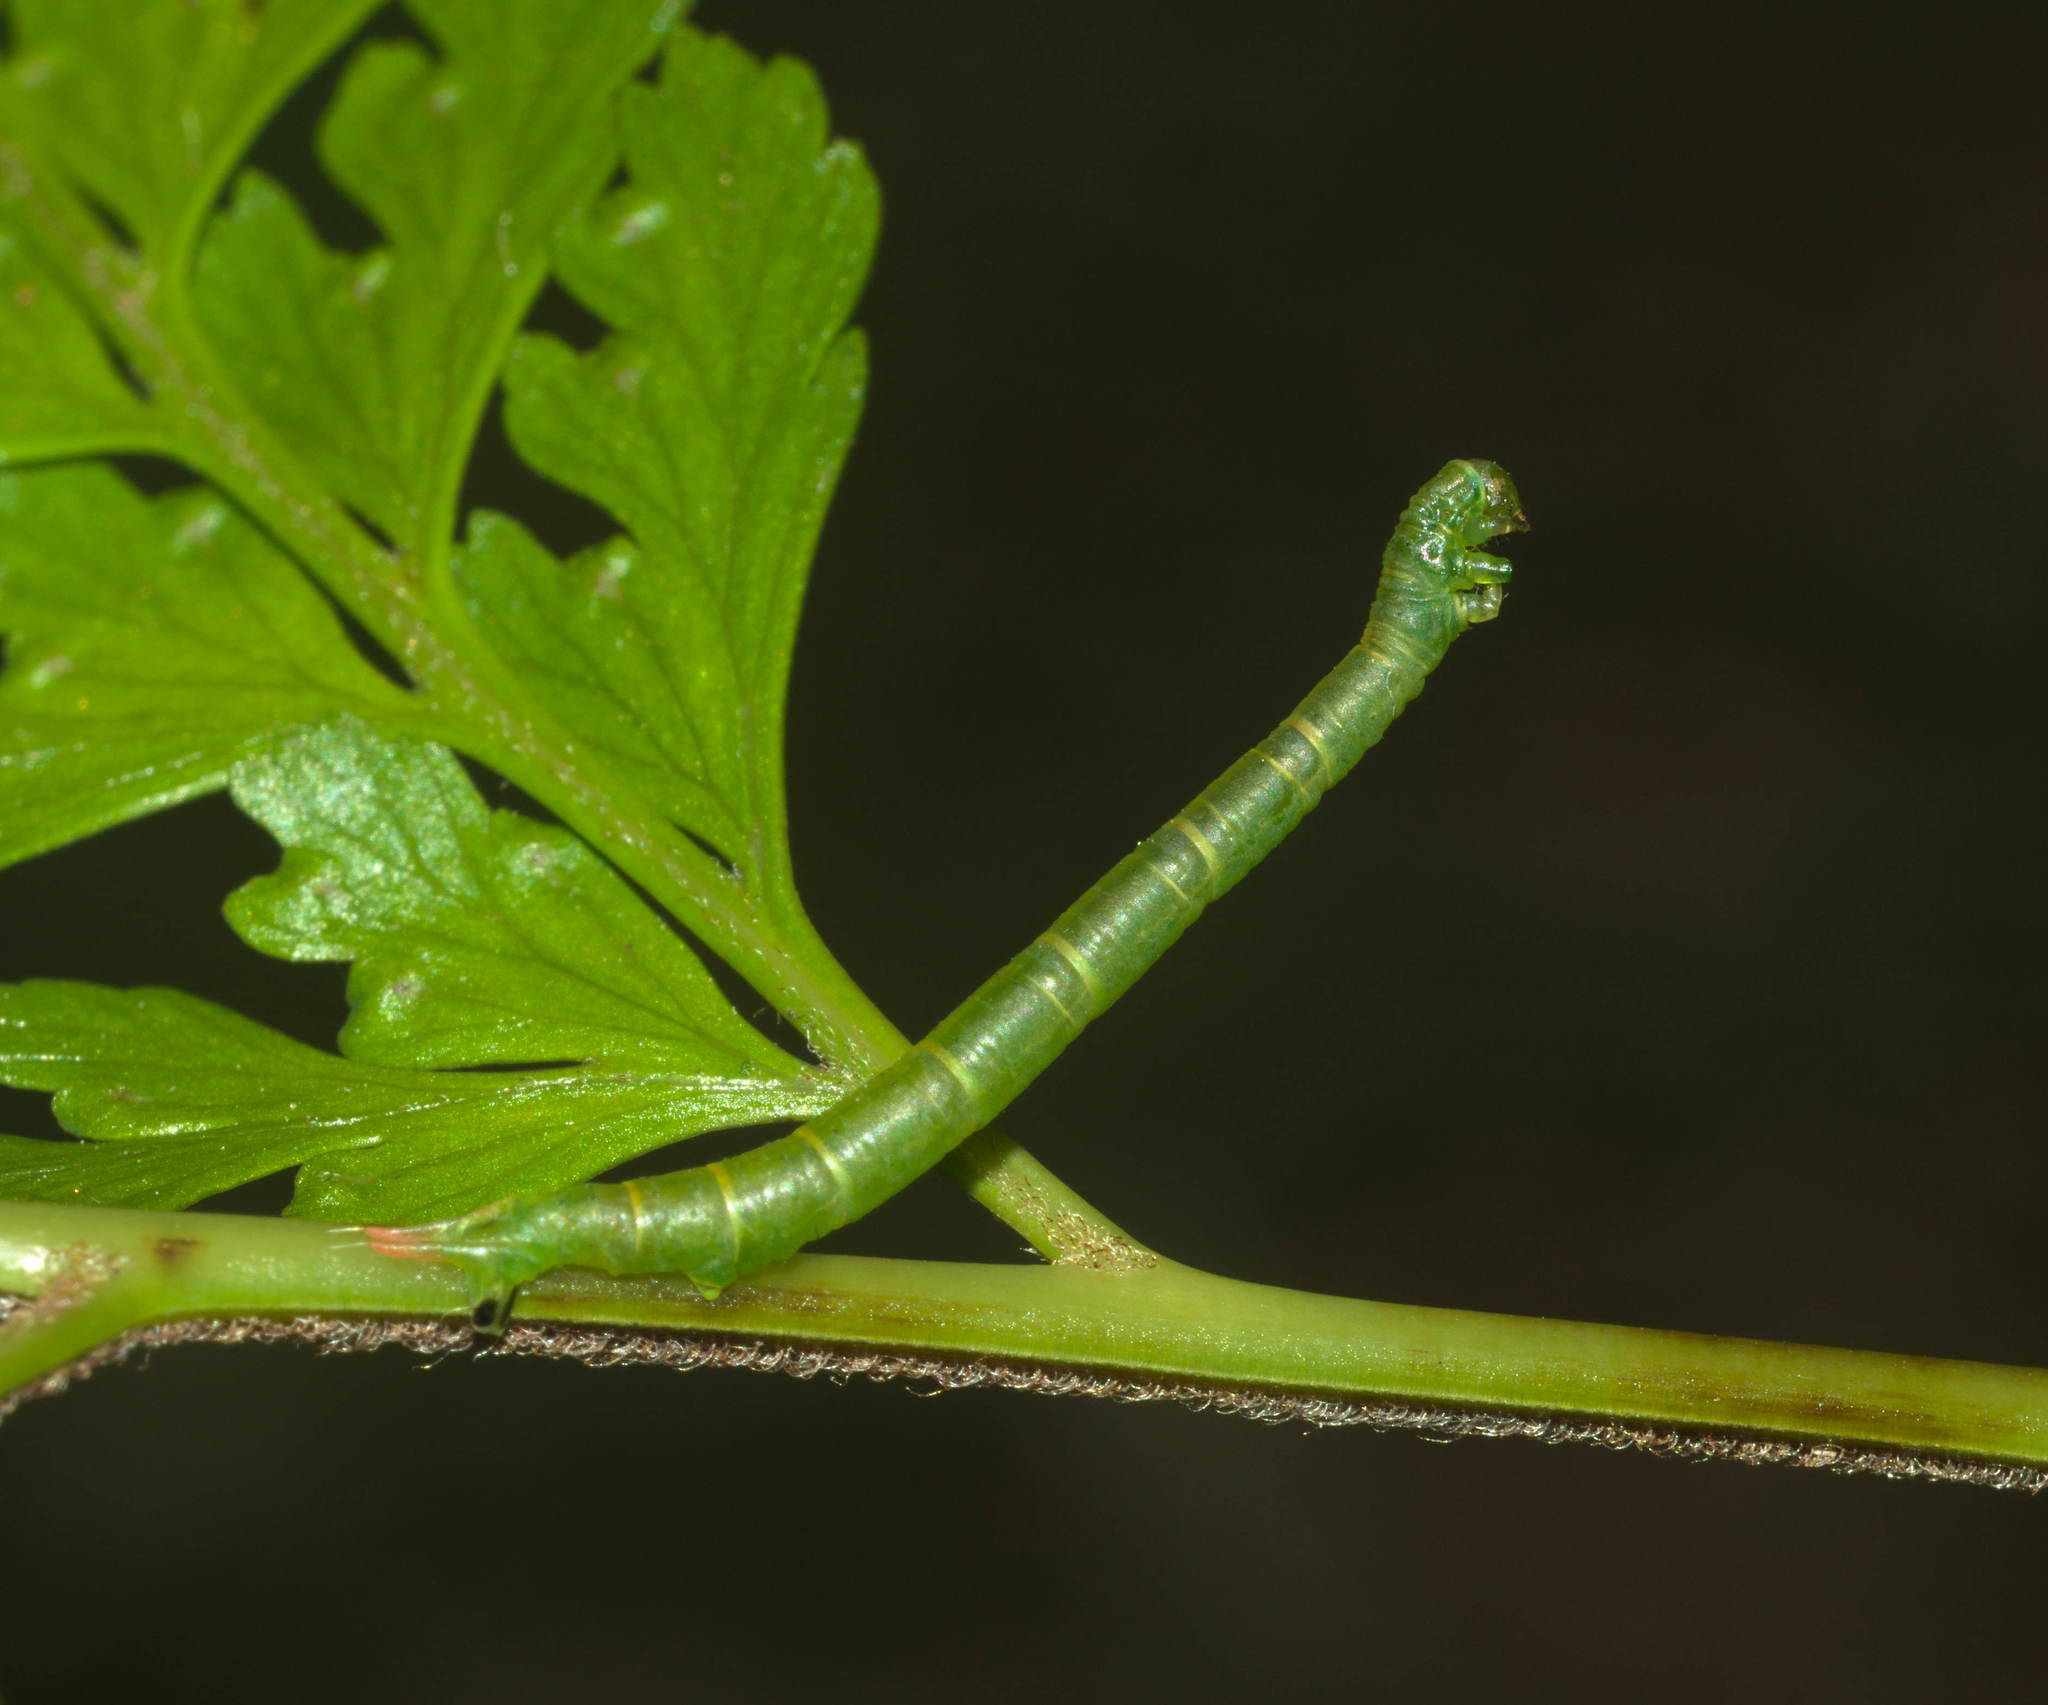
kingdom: Animalia
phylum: Arthropoda
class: Insecta
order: Lepidoptera
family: Geometridae
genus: Eupithecia
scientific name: Eupithecia orichloris
